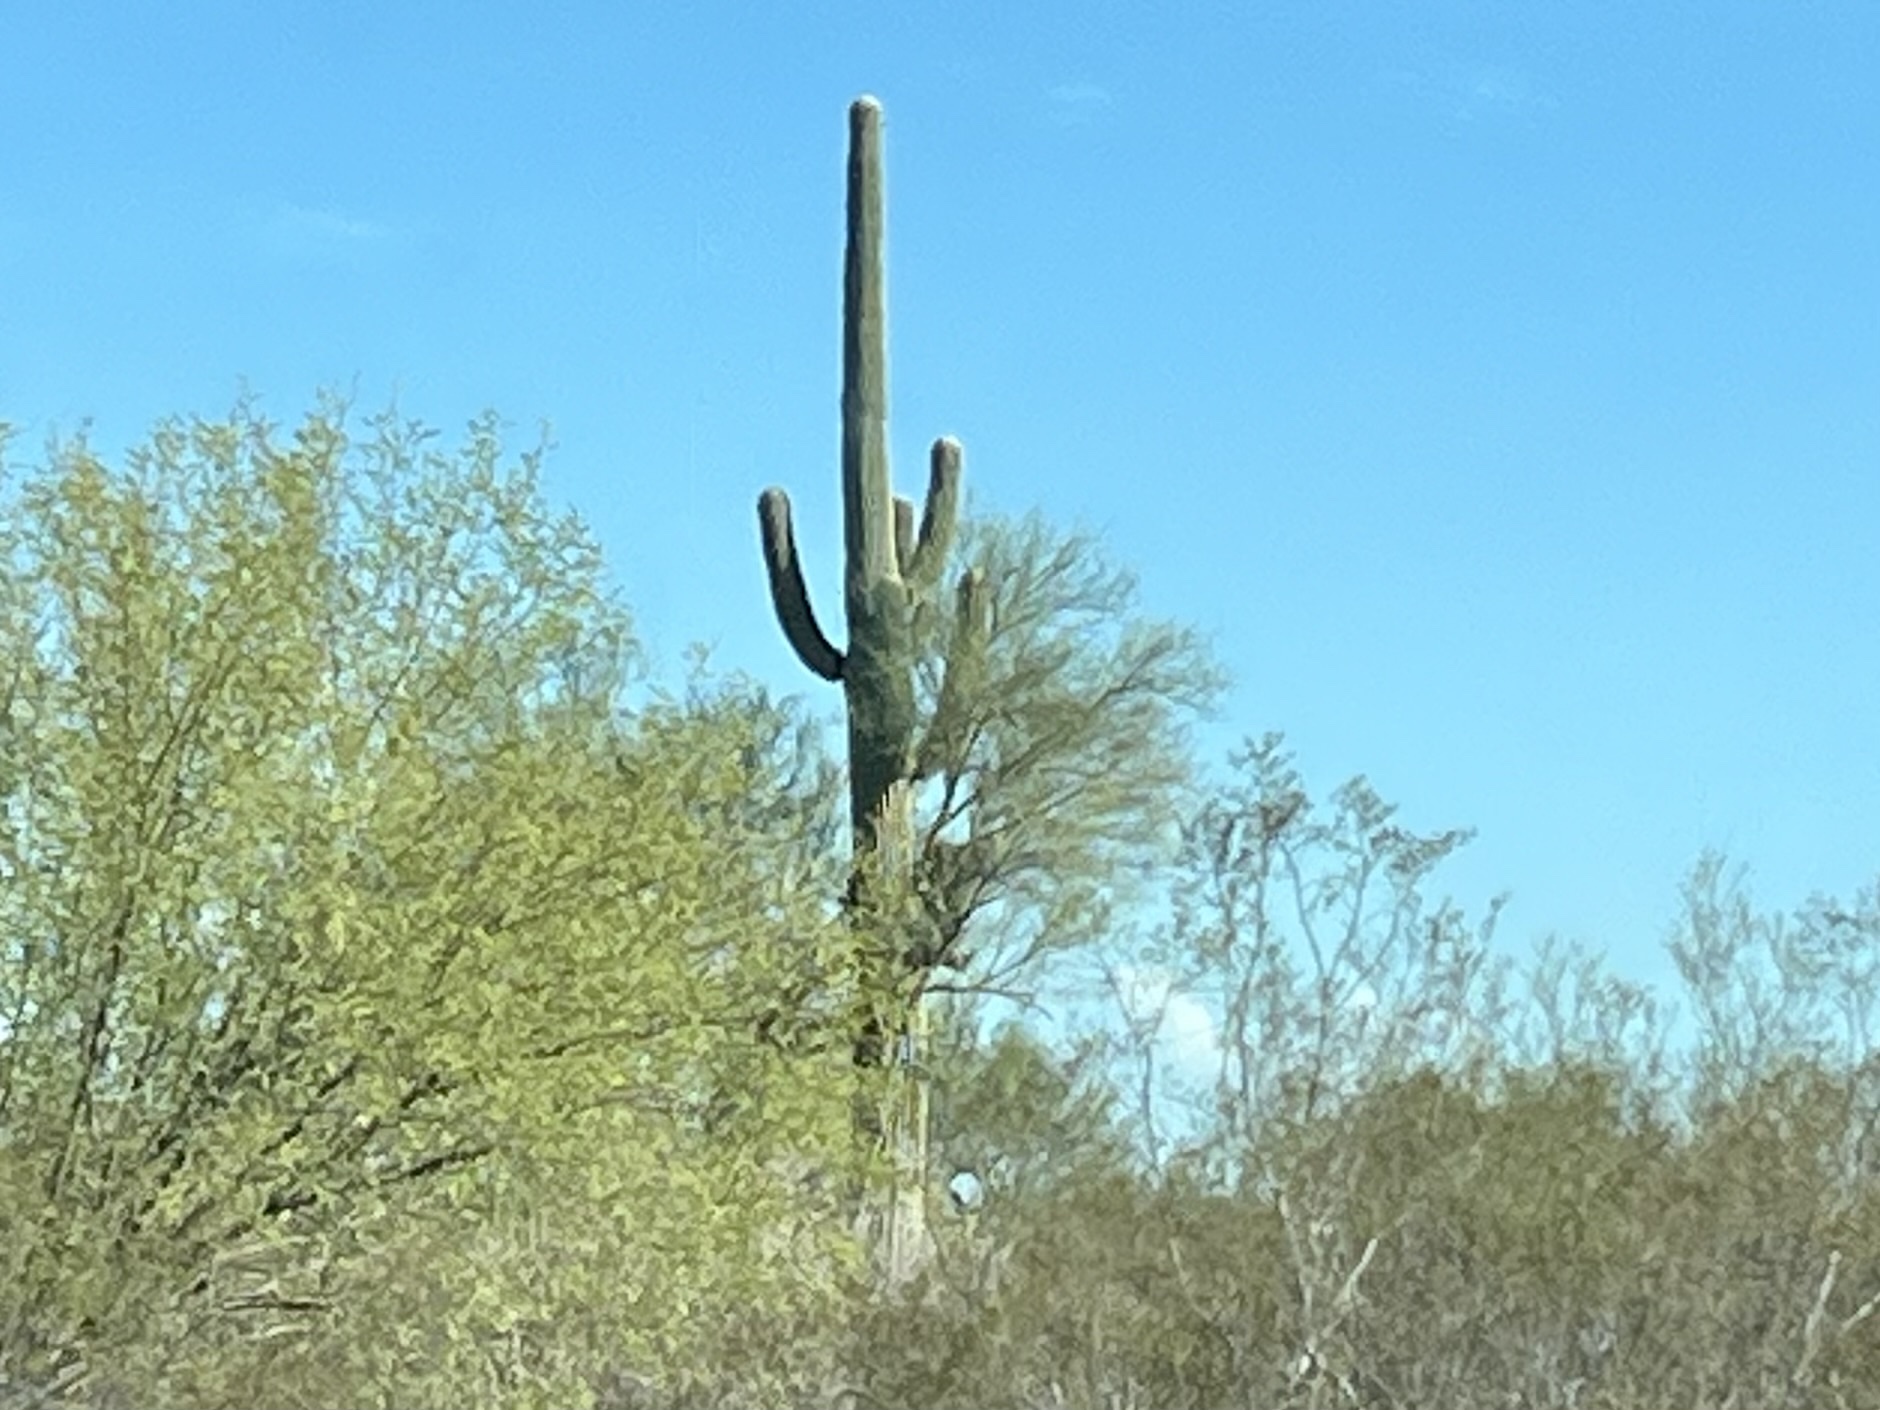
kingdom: Plantae
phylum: Tracheophyta
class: Magnoliopsida
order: Caryophyllales
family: Cactaceae
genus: Carnegiea
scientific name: Carnegiea gigantea
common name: Saguaro
